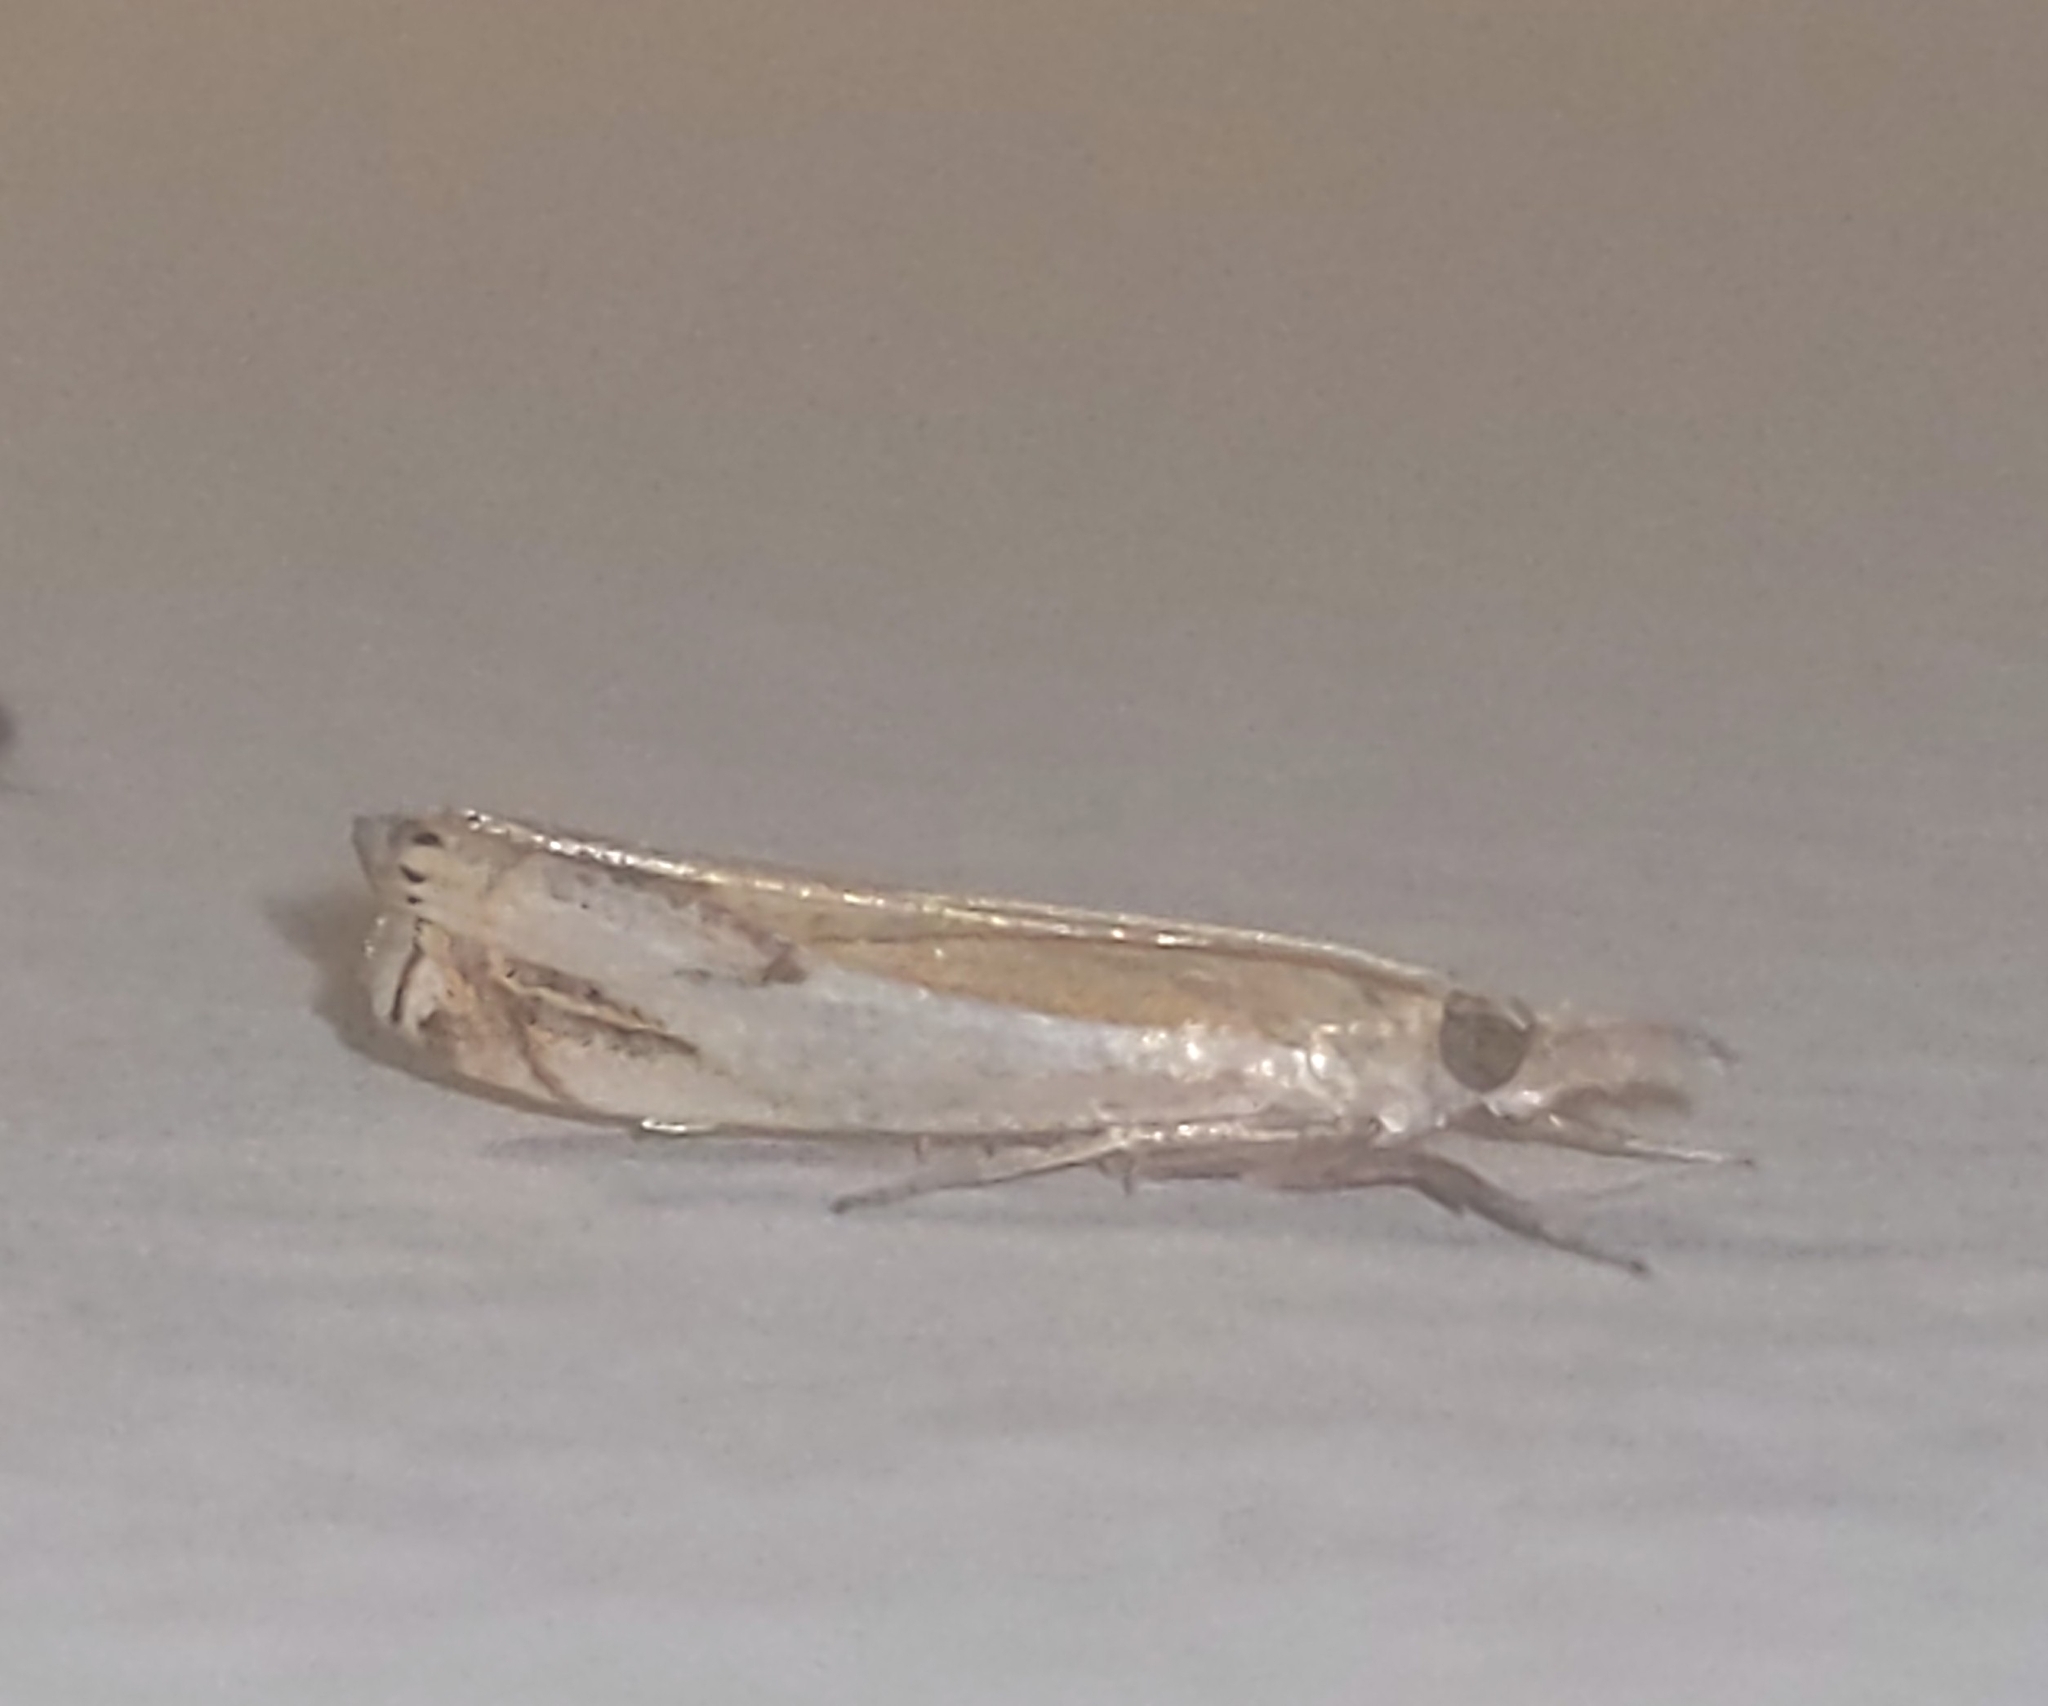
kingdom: Animalia
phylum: Arthropoda
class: Insecta
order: Lepidoptera
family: Crambidae
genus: Crambus
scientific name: Crambus agitatellus
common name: Double-banded grass-veneer
